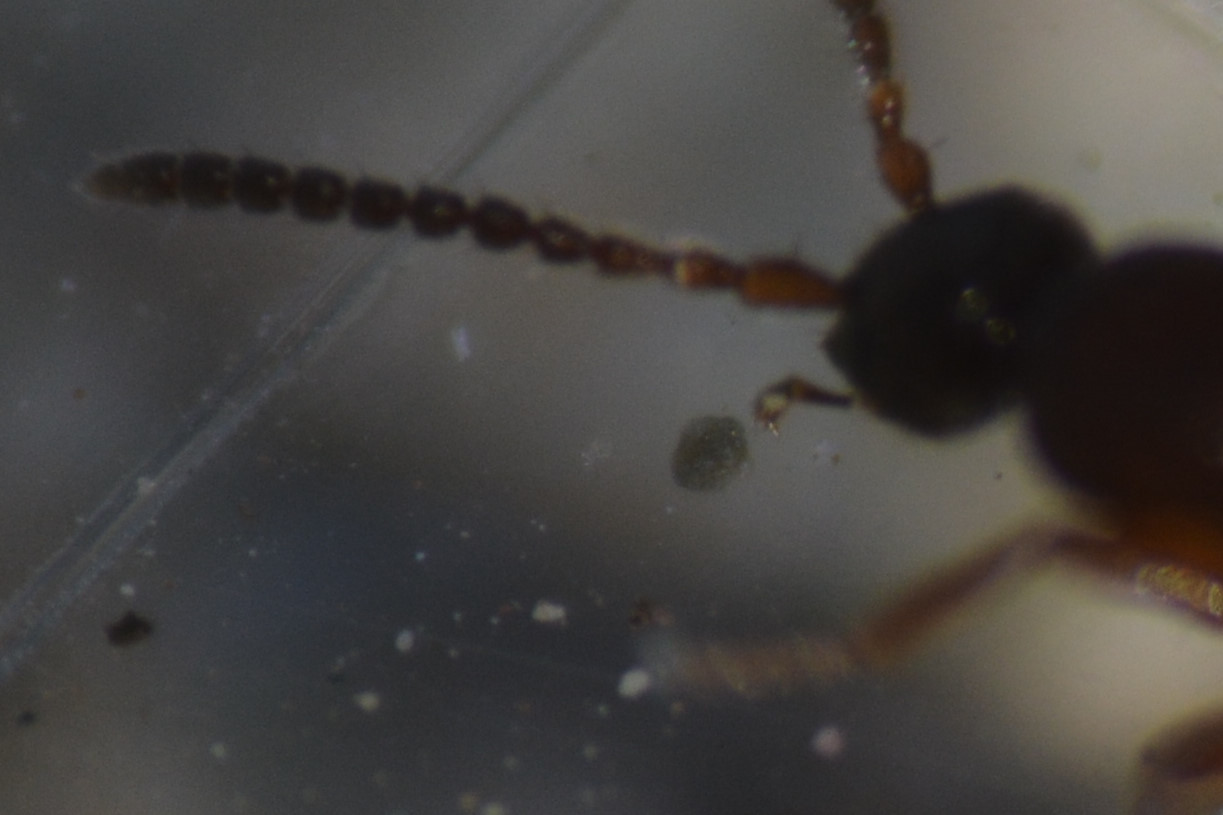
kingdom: Animalia
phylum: Arthropoda
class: Insecta
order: Coleoptera
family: Staphylinidae
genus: Drusilla
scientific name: Drusilla canaliculata
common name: Rove beetle
